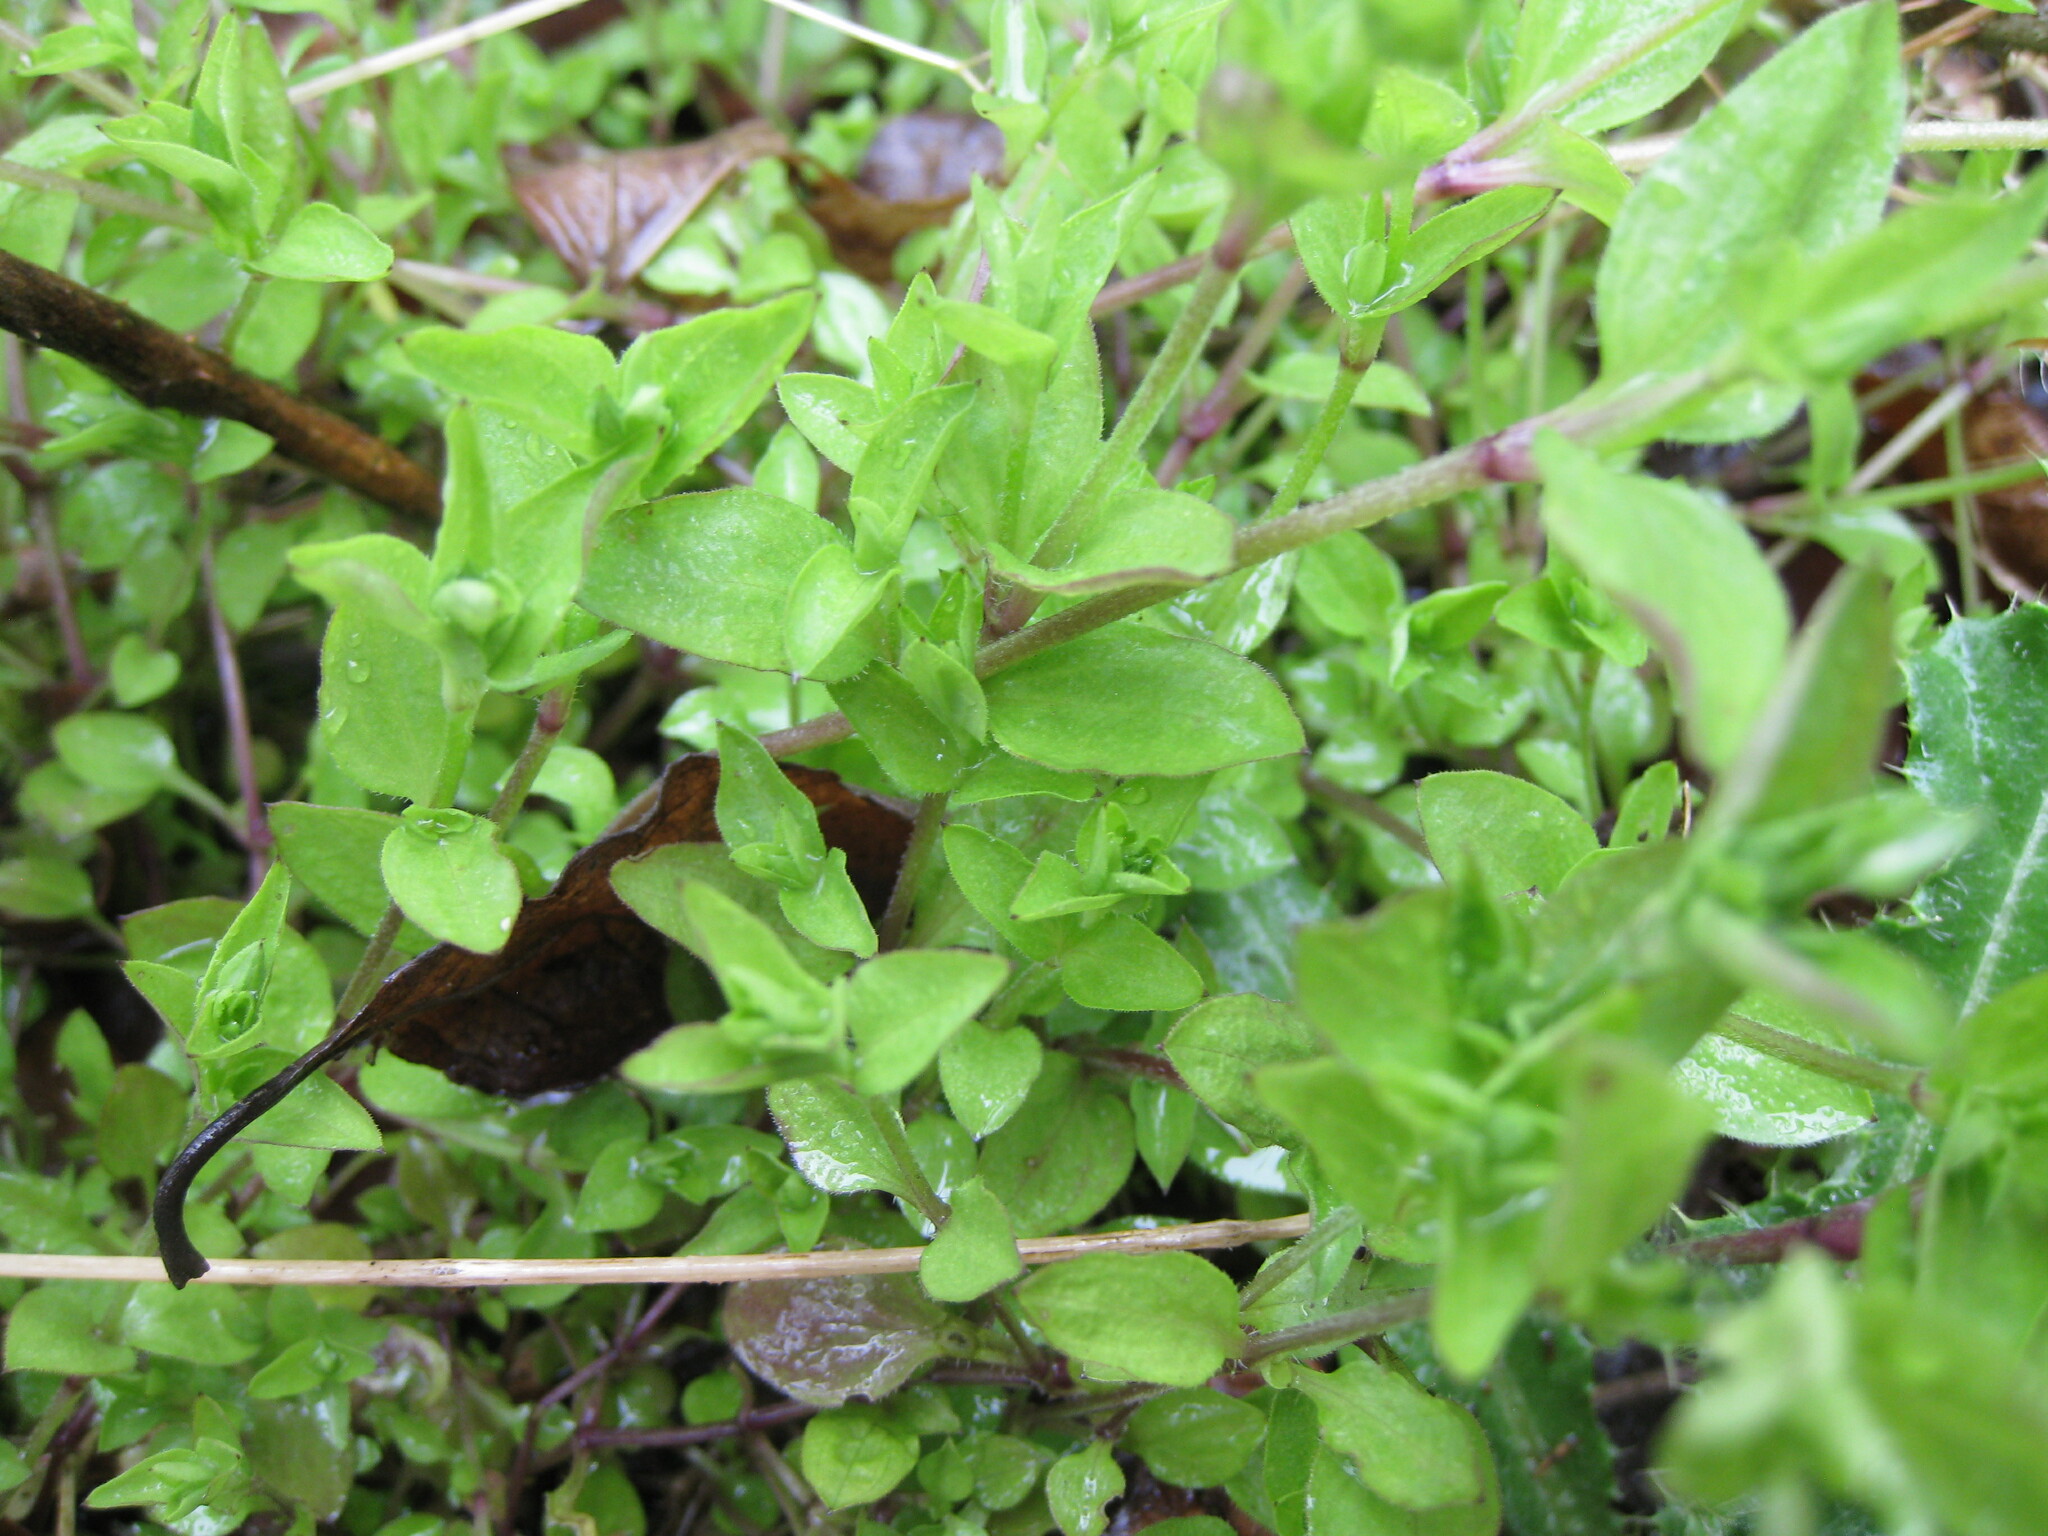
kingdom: Plantae
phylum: Tracheophyta
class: Magnoliopsida
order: Caryophyllales
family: Caryophyllaceae
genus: Moehringia
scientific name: Moehringia trinervia
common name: Three-nerved sandwort
